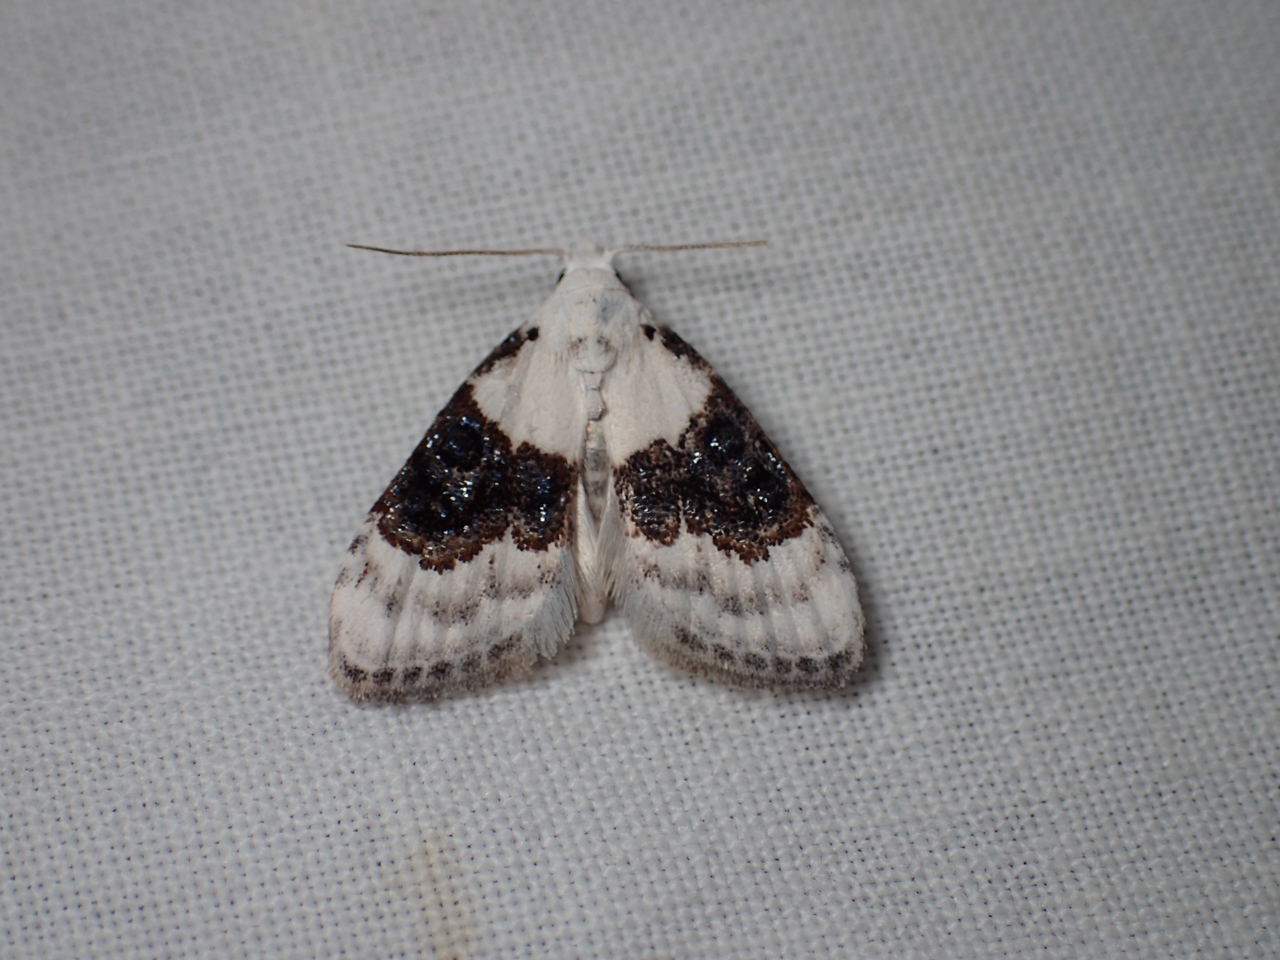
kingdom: Animalia
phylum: Arthropoda
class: Insecta
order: Lepidoptera
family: Nolidae
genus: Nola
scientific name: Nola pustulata
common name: Sharp-blotched nola moth
